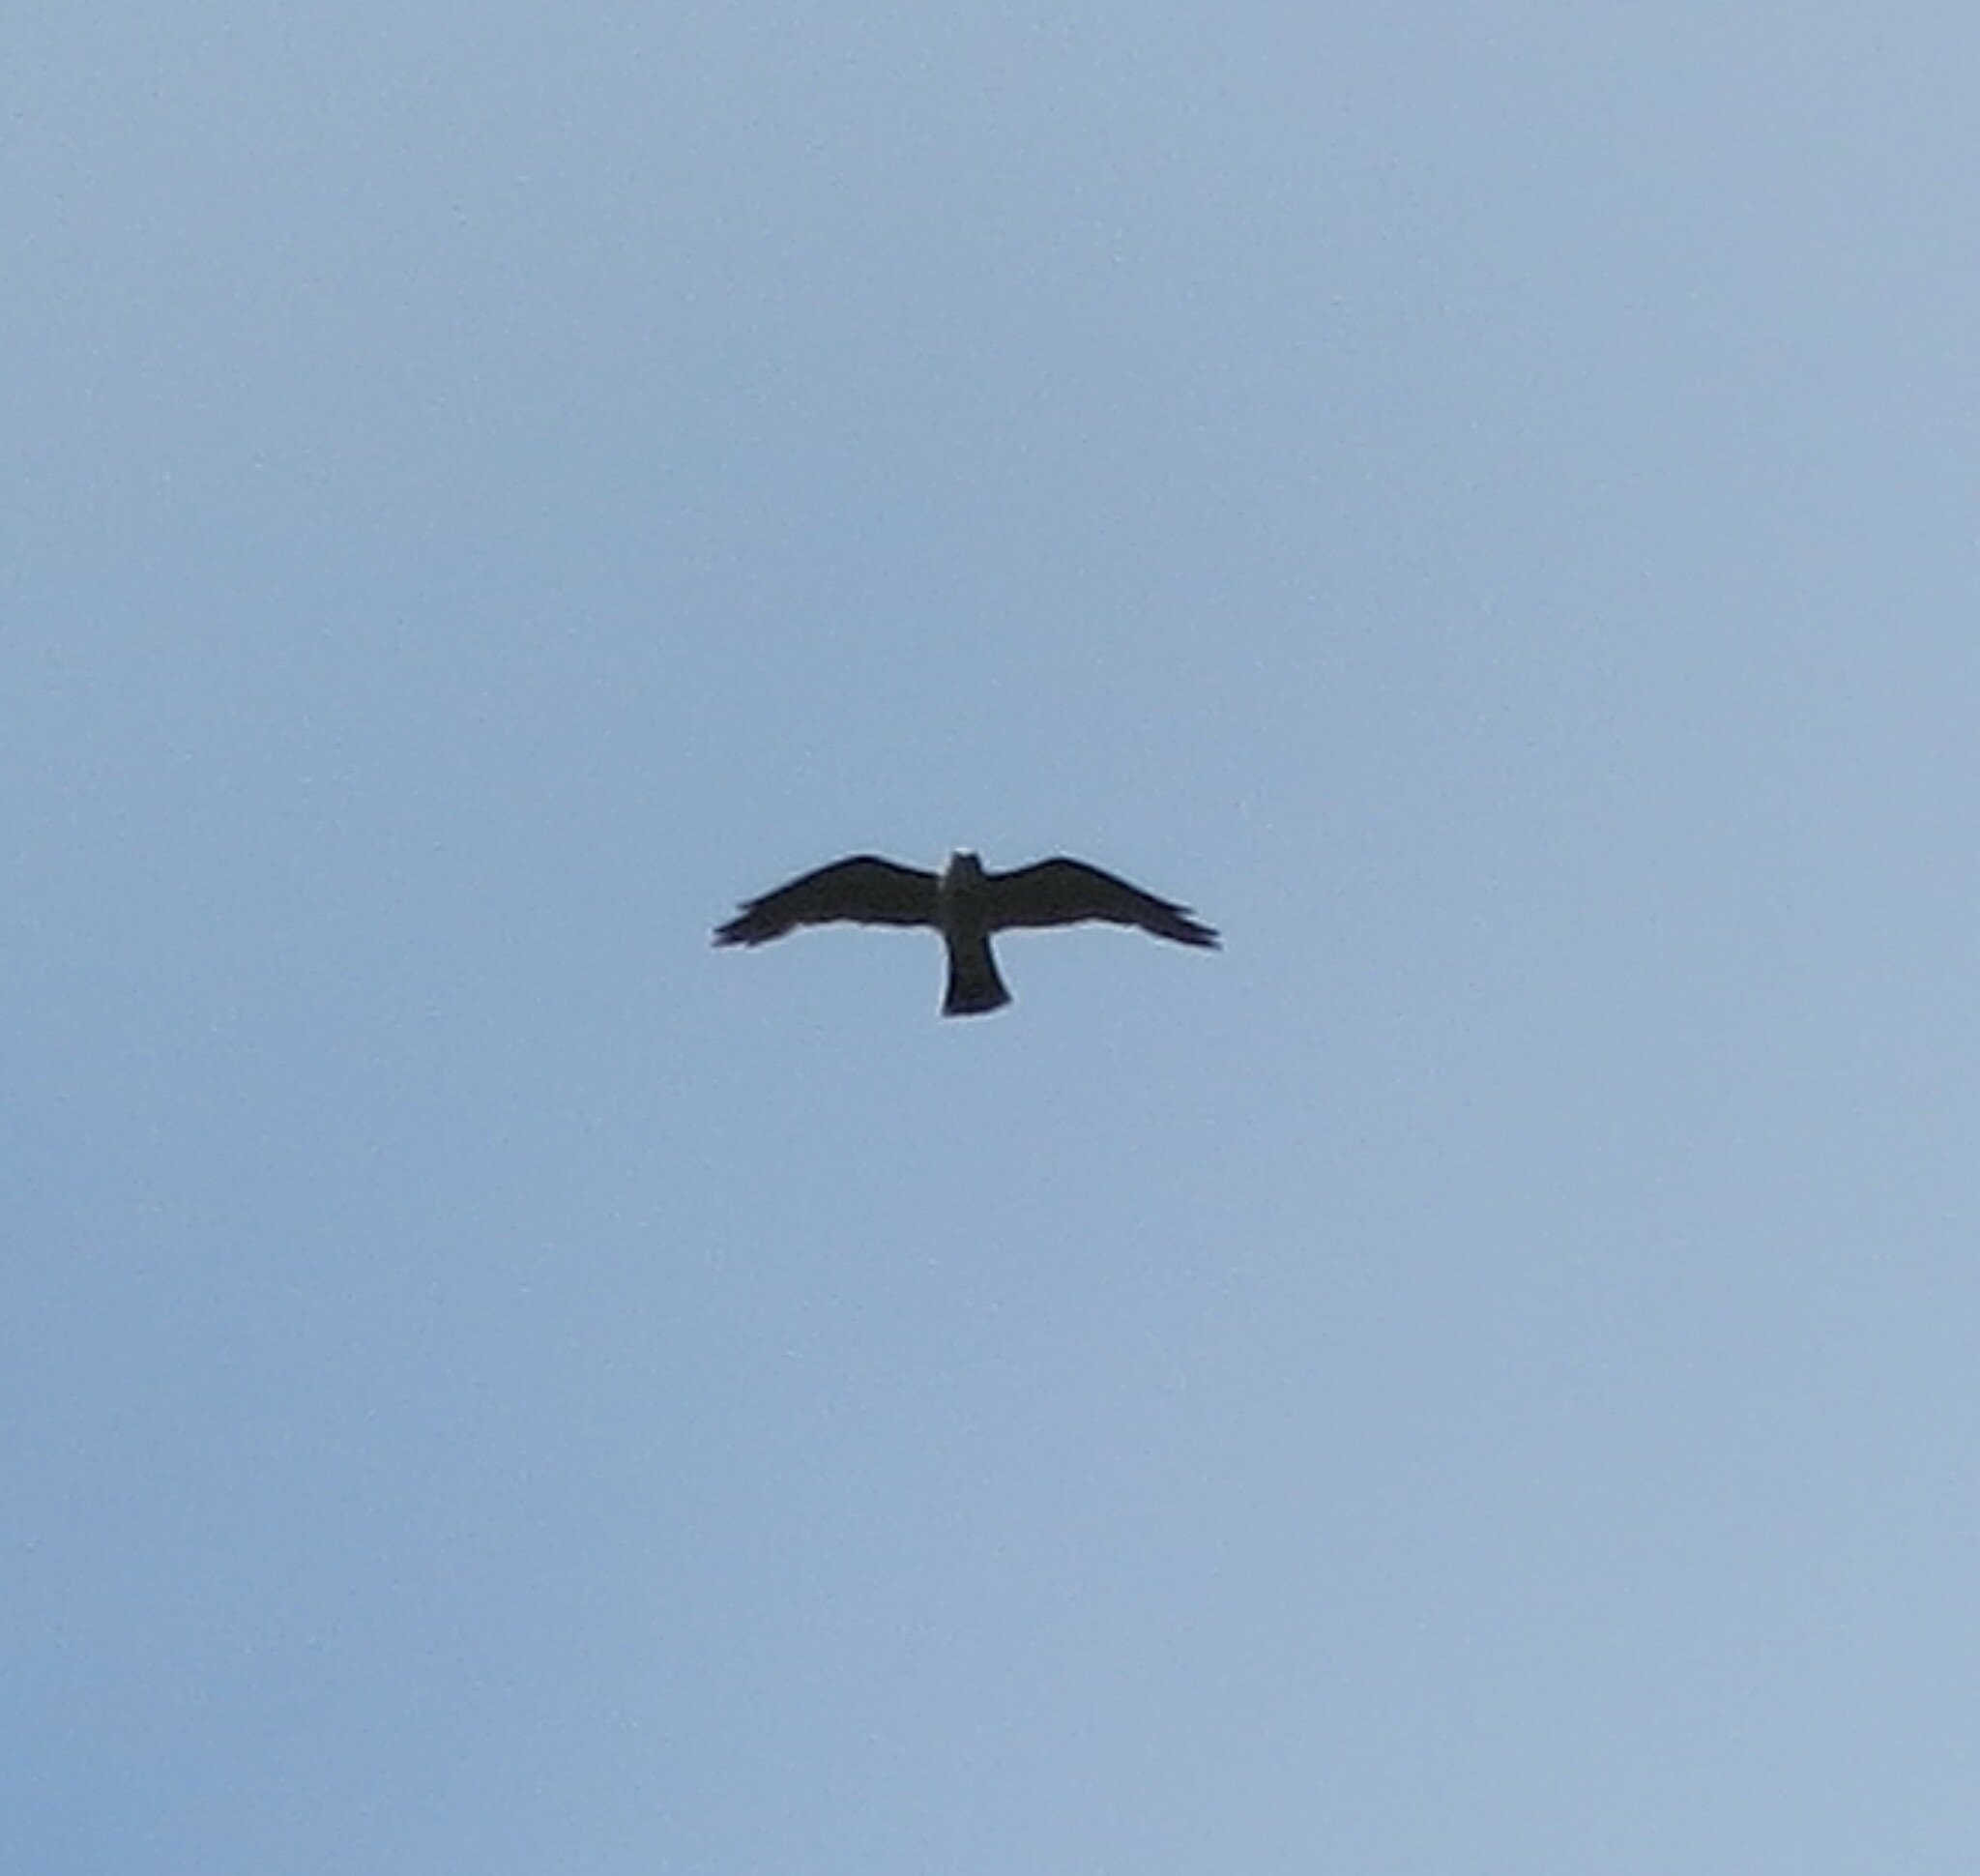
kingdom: Animalia
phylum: Chordata
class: Aves
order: Accipitriformes
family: Accipitridae
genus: Ictinia
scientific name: Ictinia mississippiensis
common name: Mississippi kite
